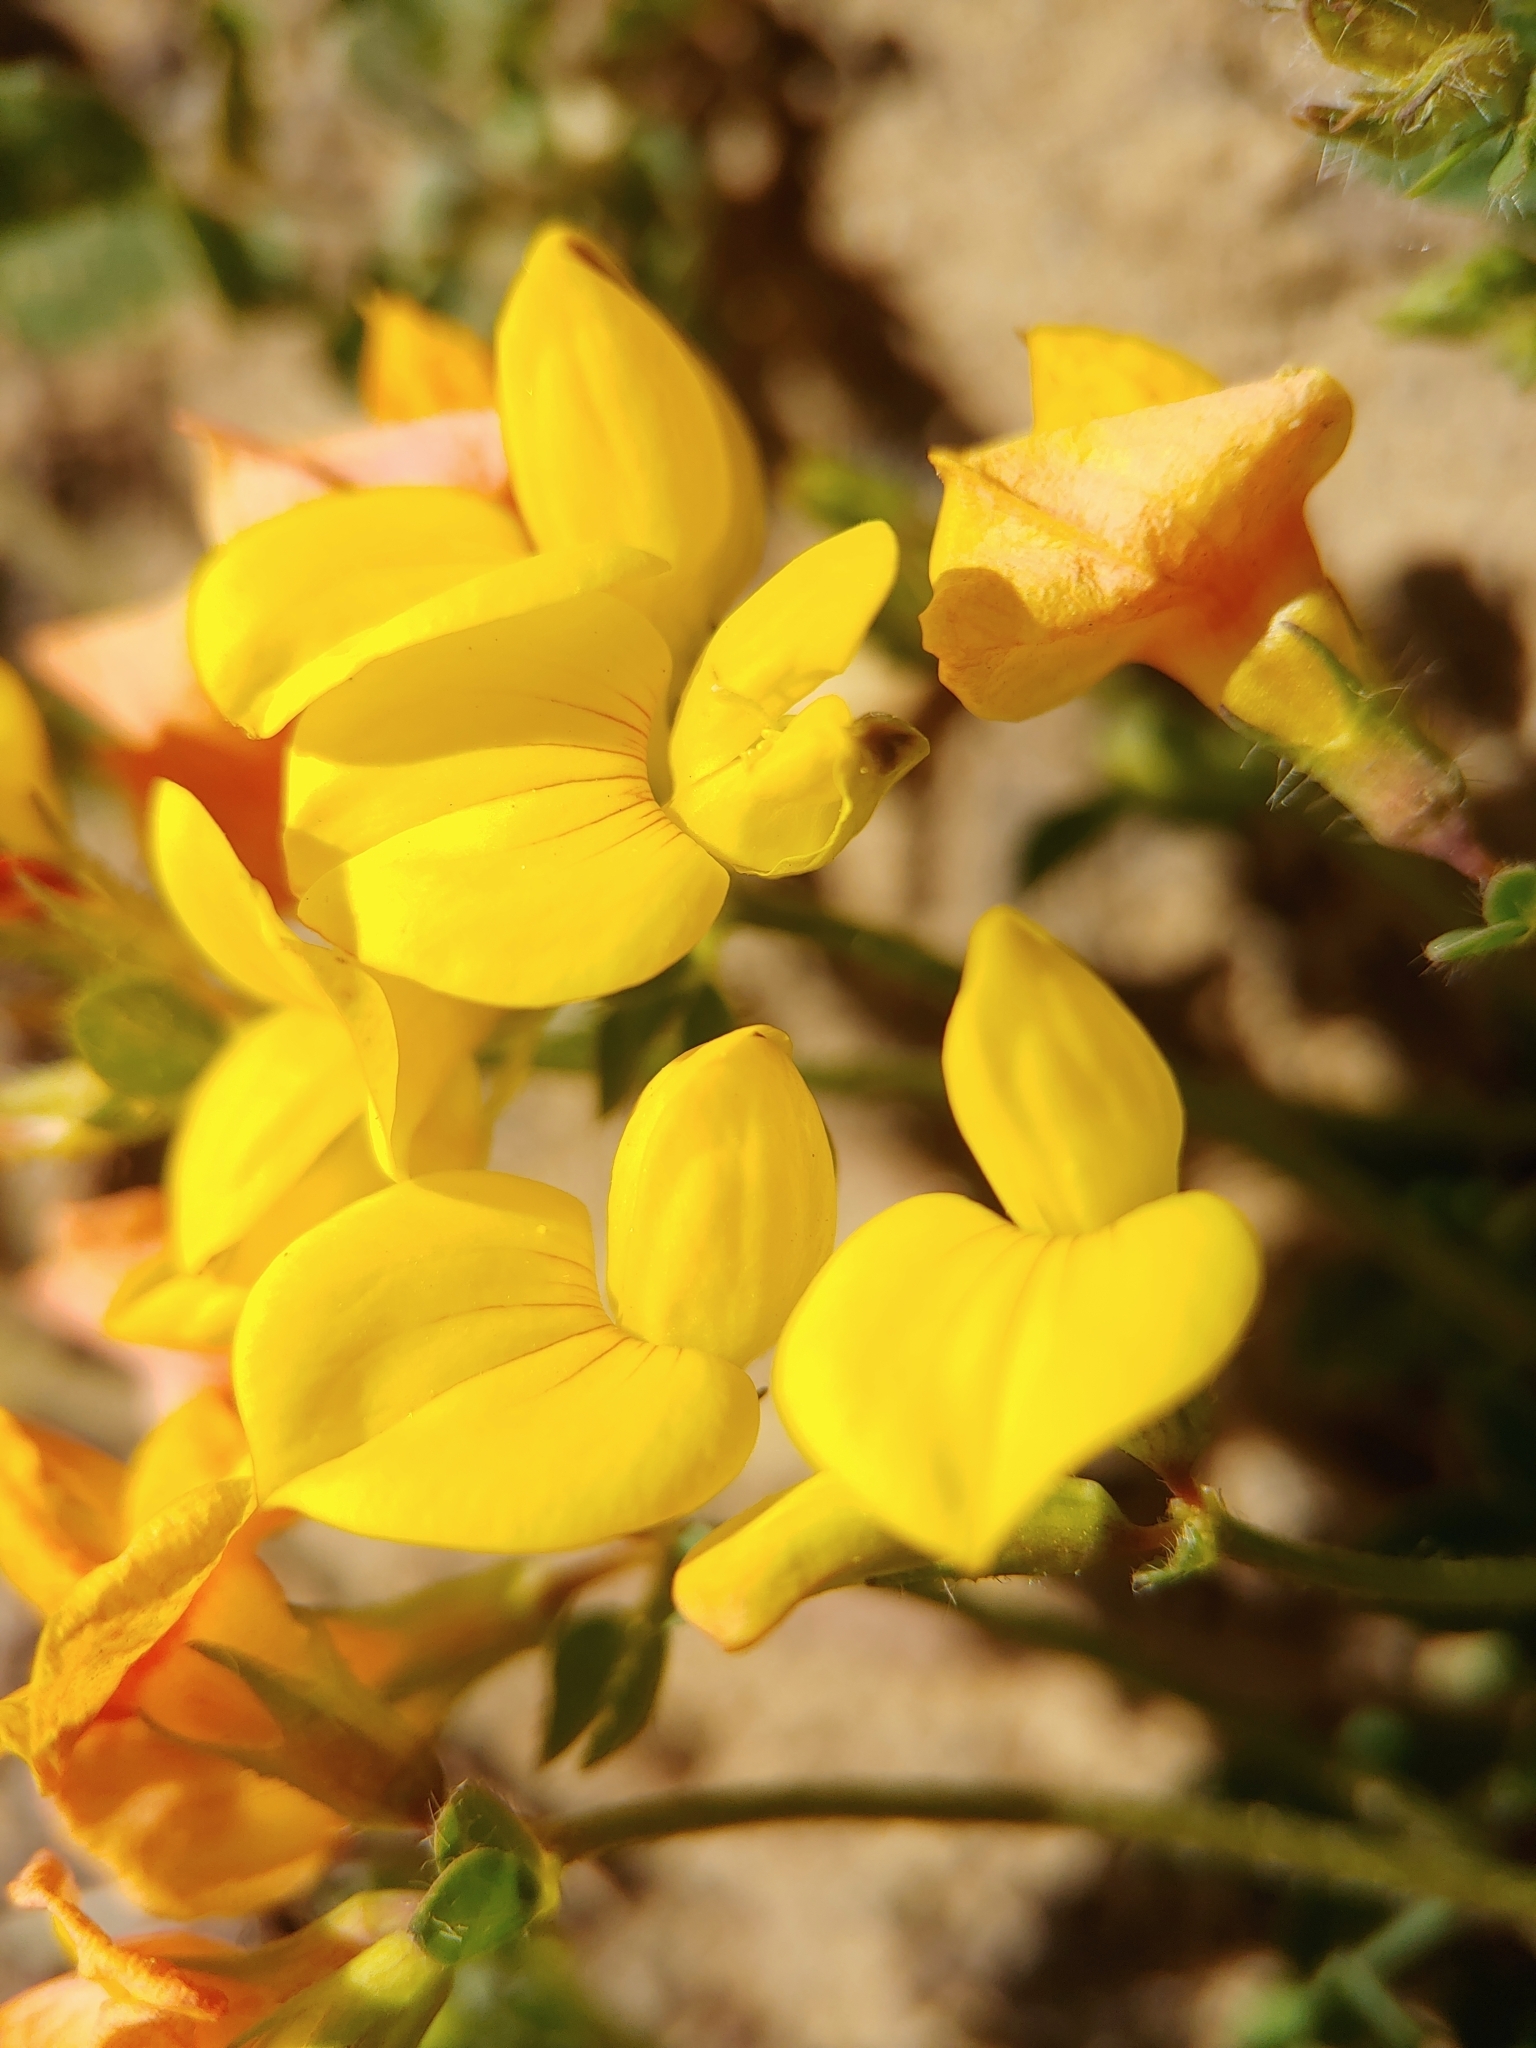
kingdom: Plantae
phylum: Tracheophyta
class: Magnoliopsida
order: Fabales
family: Fabaceae
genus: Lotus
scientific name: Lotus corniculatus
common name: Common bird's-foot-trefoil
